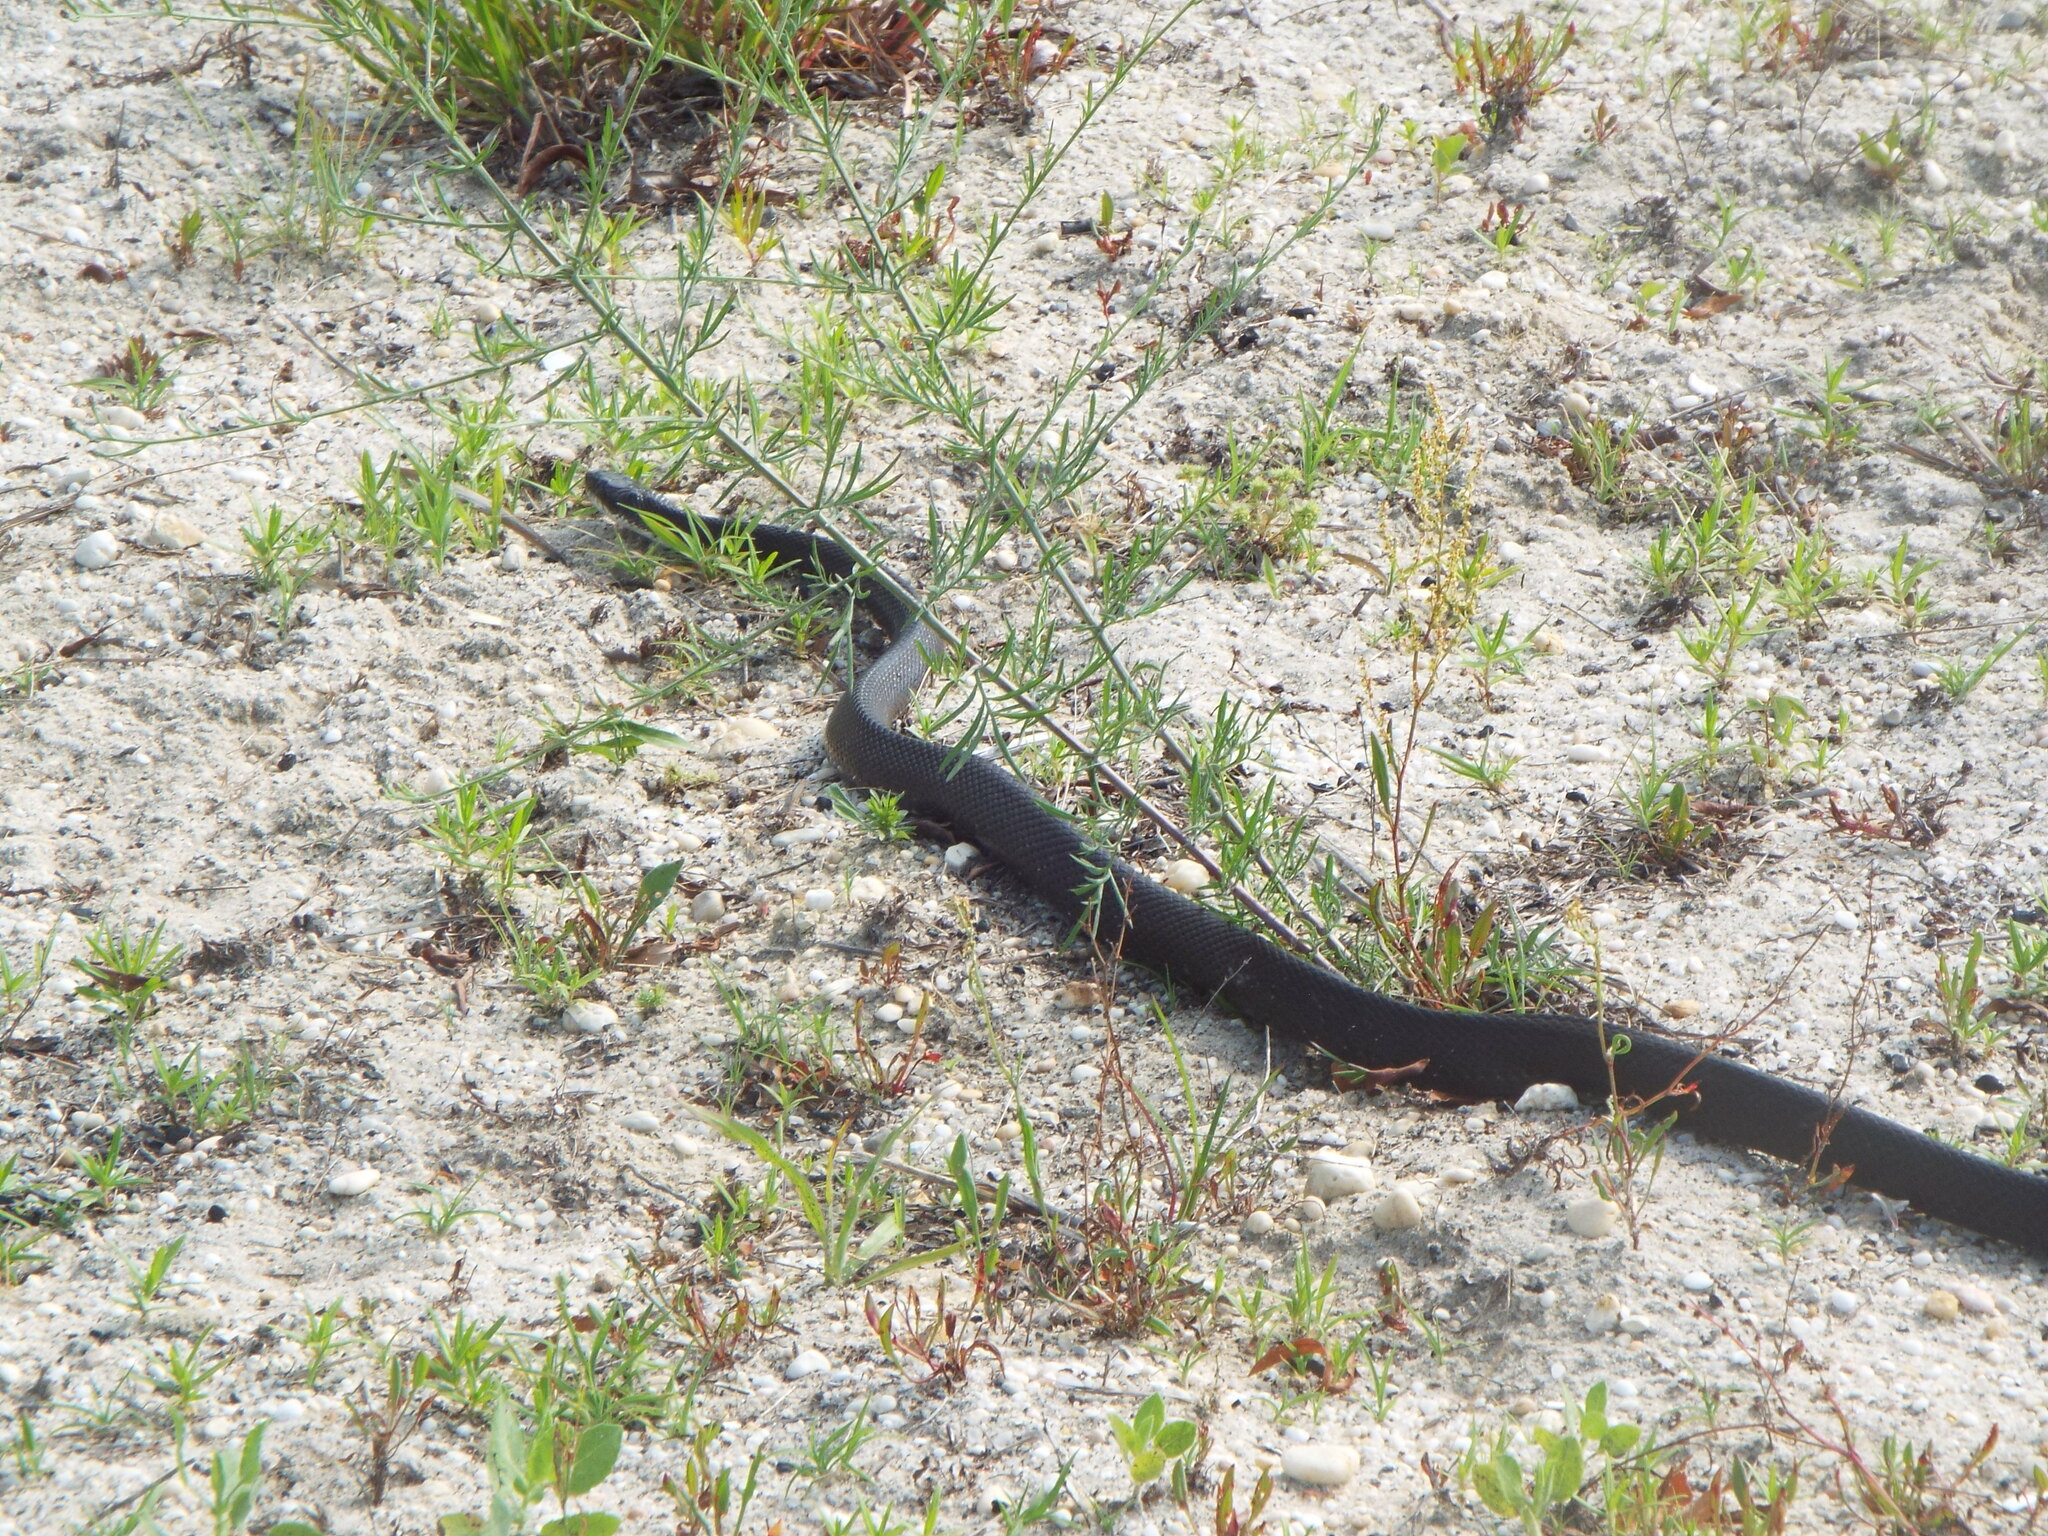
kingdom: Animalia
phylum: Chordata
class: Squamata
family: Colubridae
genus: Pantherophis
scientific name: Pantherophis alleghaniensis
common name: Eastern rat snake
